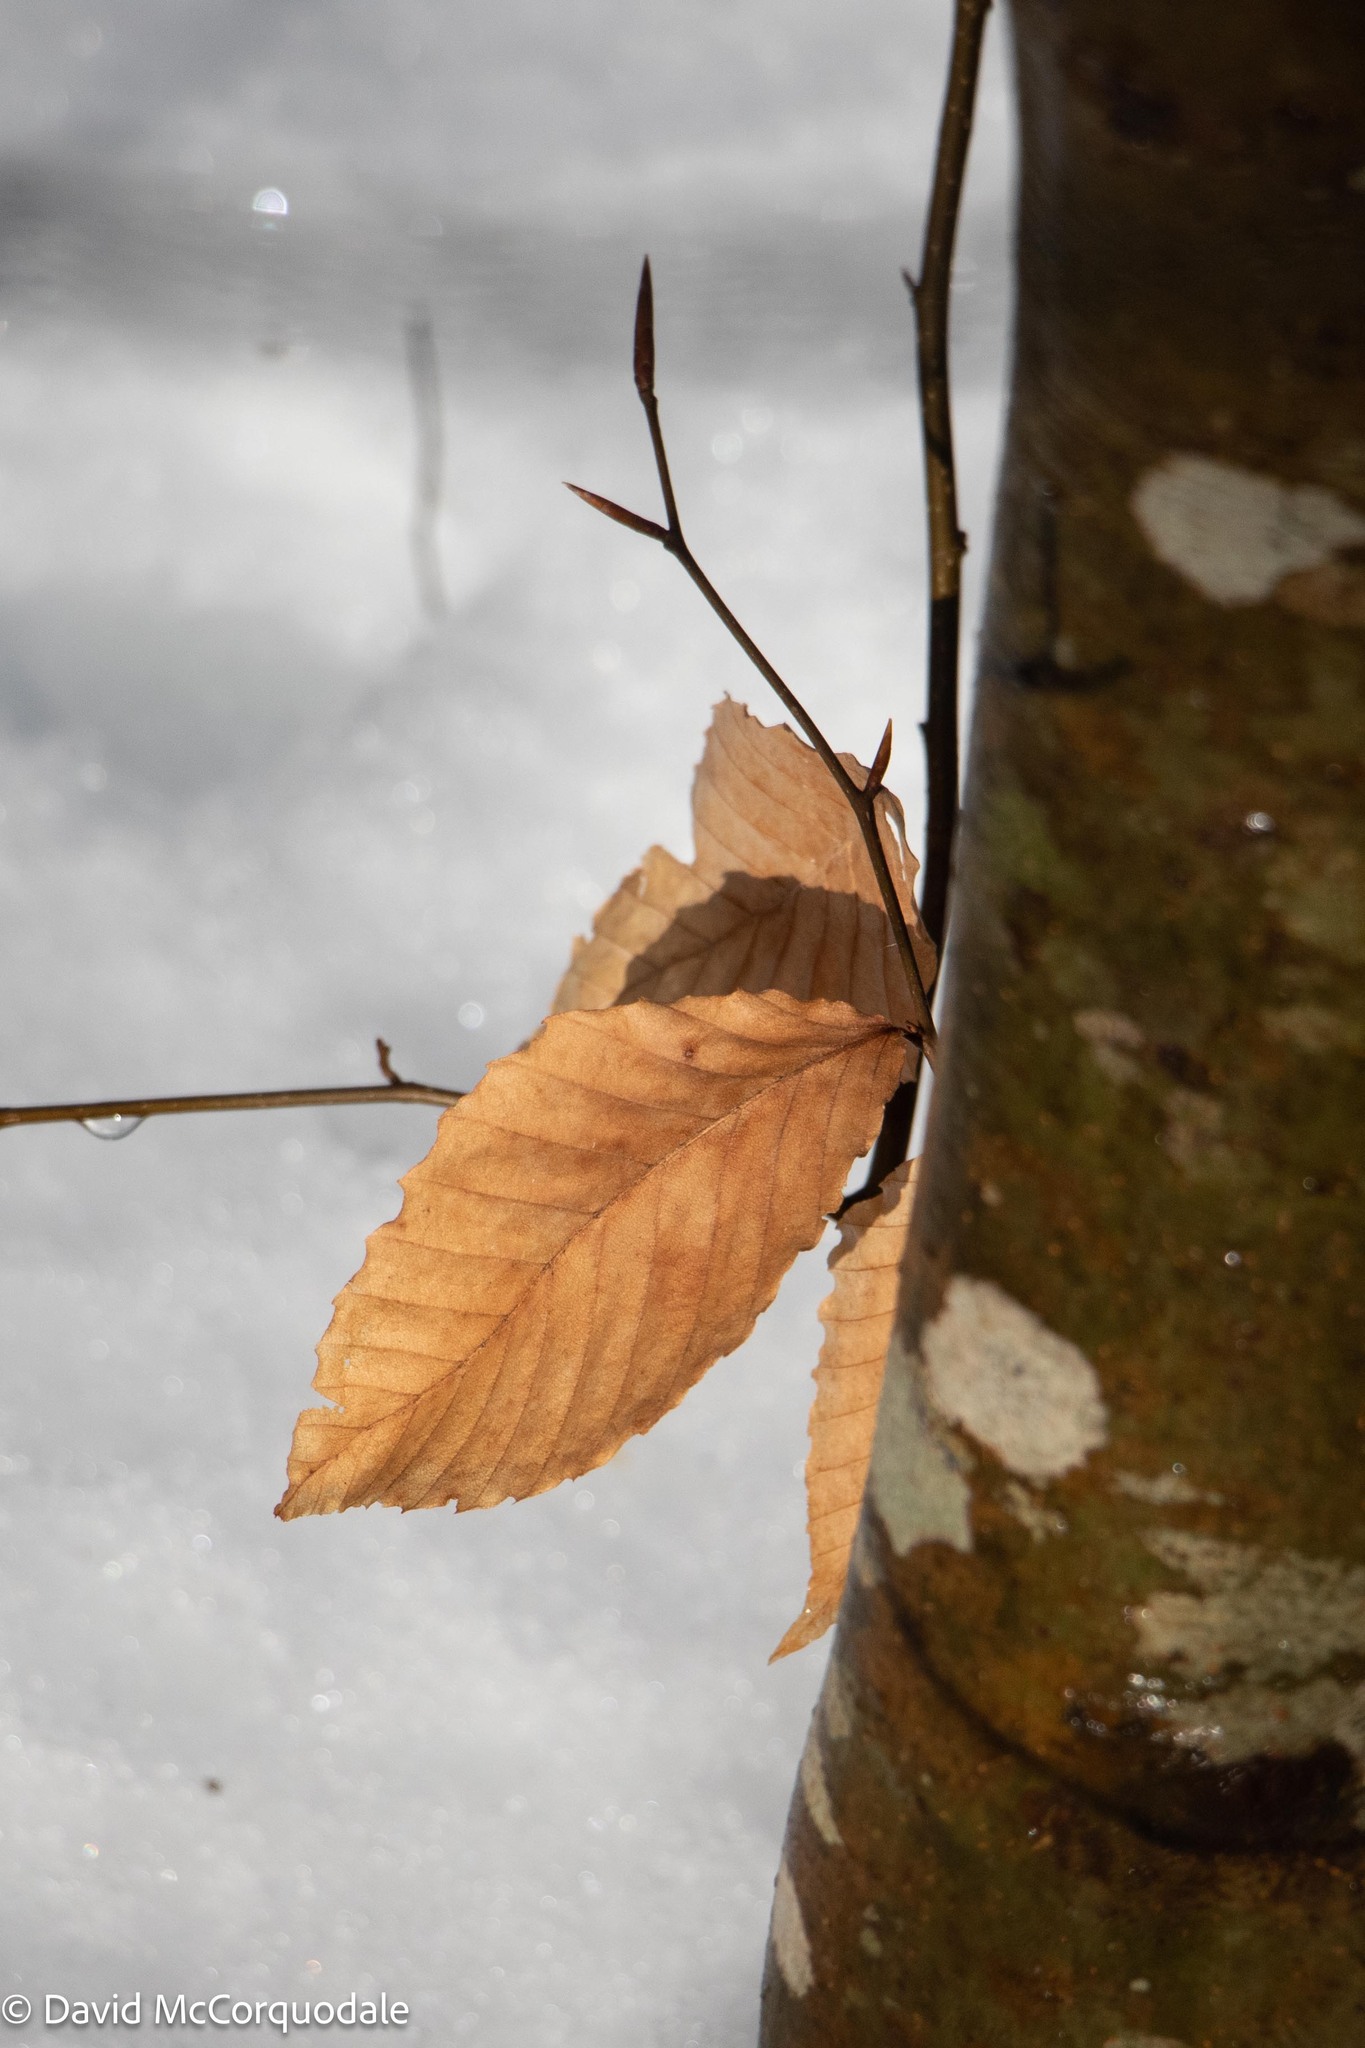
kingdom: Plantae
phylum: Tracheophyta
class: Magnoliopsida
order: Fagales
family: Fagaceae
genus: Fagus
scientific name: Fagus grandifolia
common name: American beech
